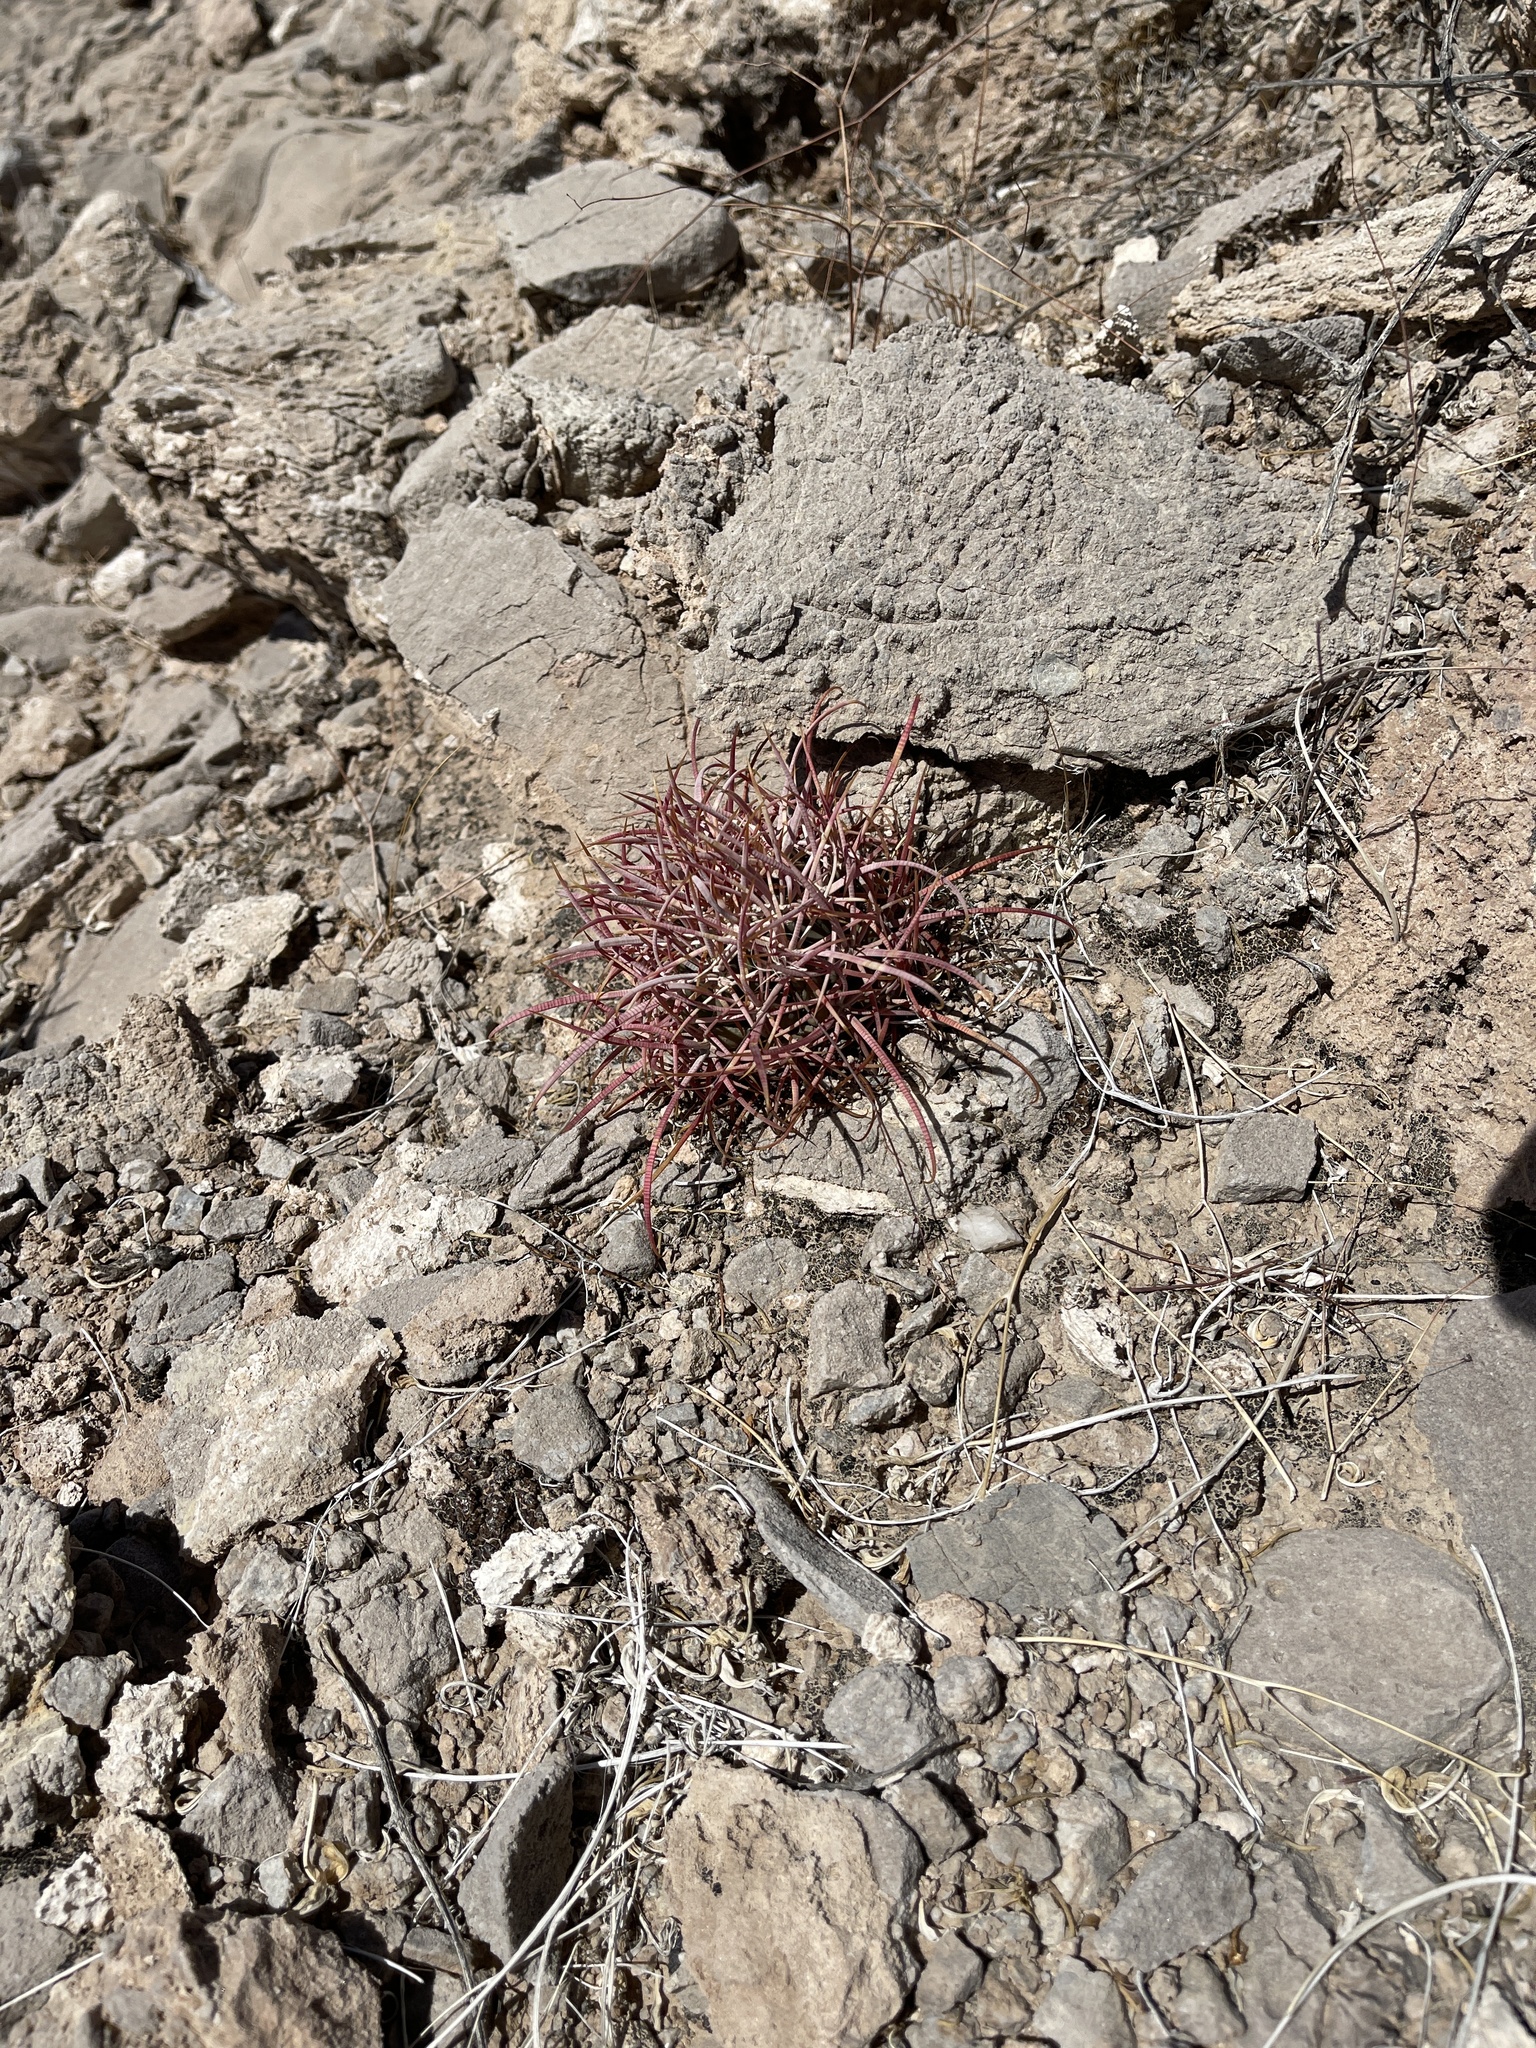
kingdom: Plantae
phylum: Tracheophyta
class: Magnoliopsida
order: Caryophyllales
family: Cactaceae
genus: Ferocactus
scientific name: Ferocactus cylindraceus
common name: California barrel cactus
